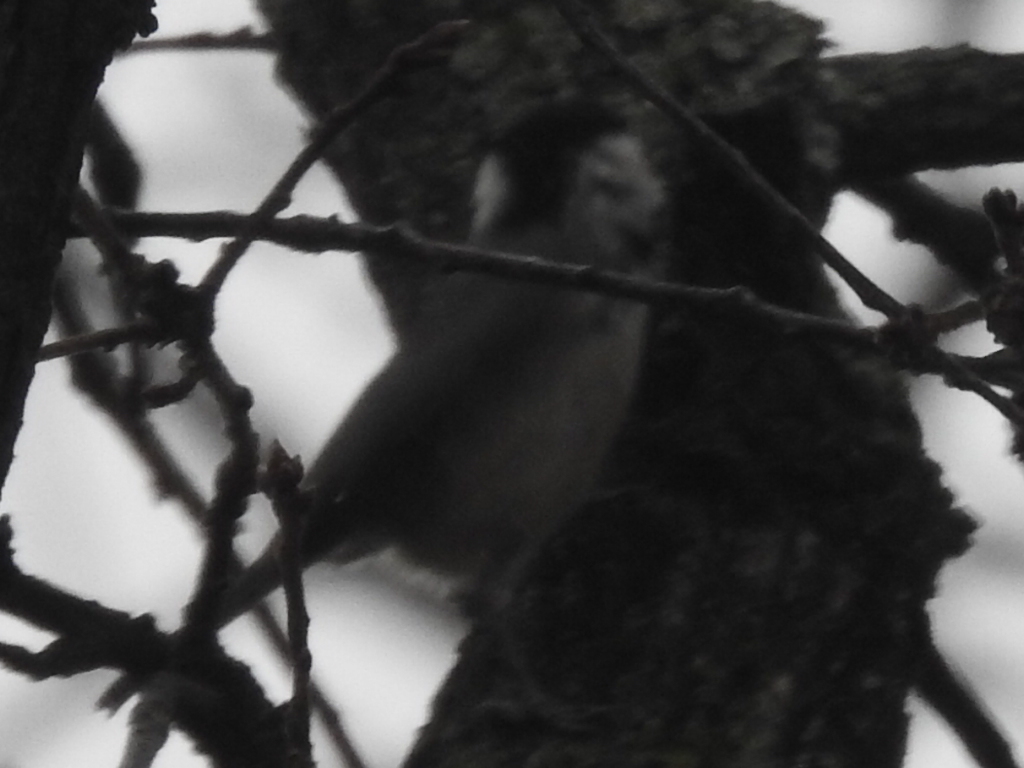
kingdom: Animalia
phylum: Chordata
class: Aves
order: Passeriformes
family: Paridae
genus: Poecile
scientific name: Poecile carolinensis
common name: Carolina chickadee
